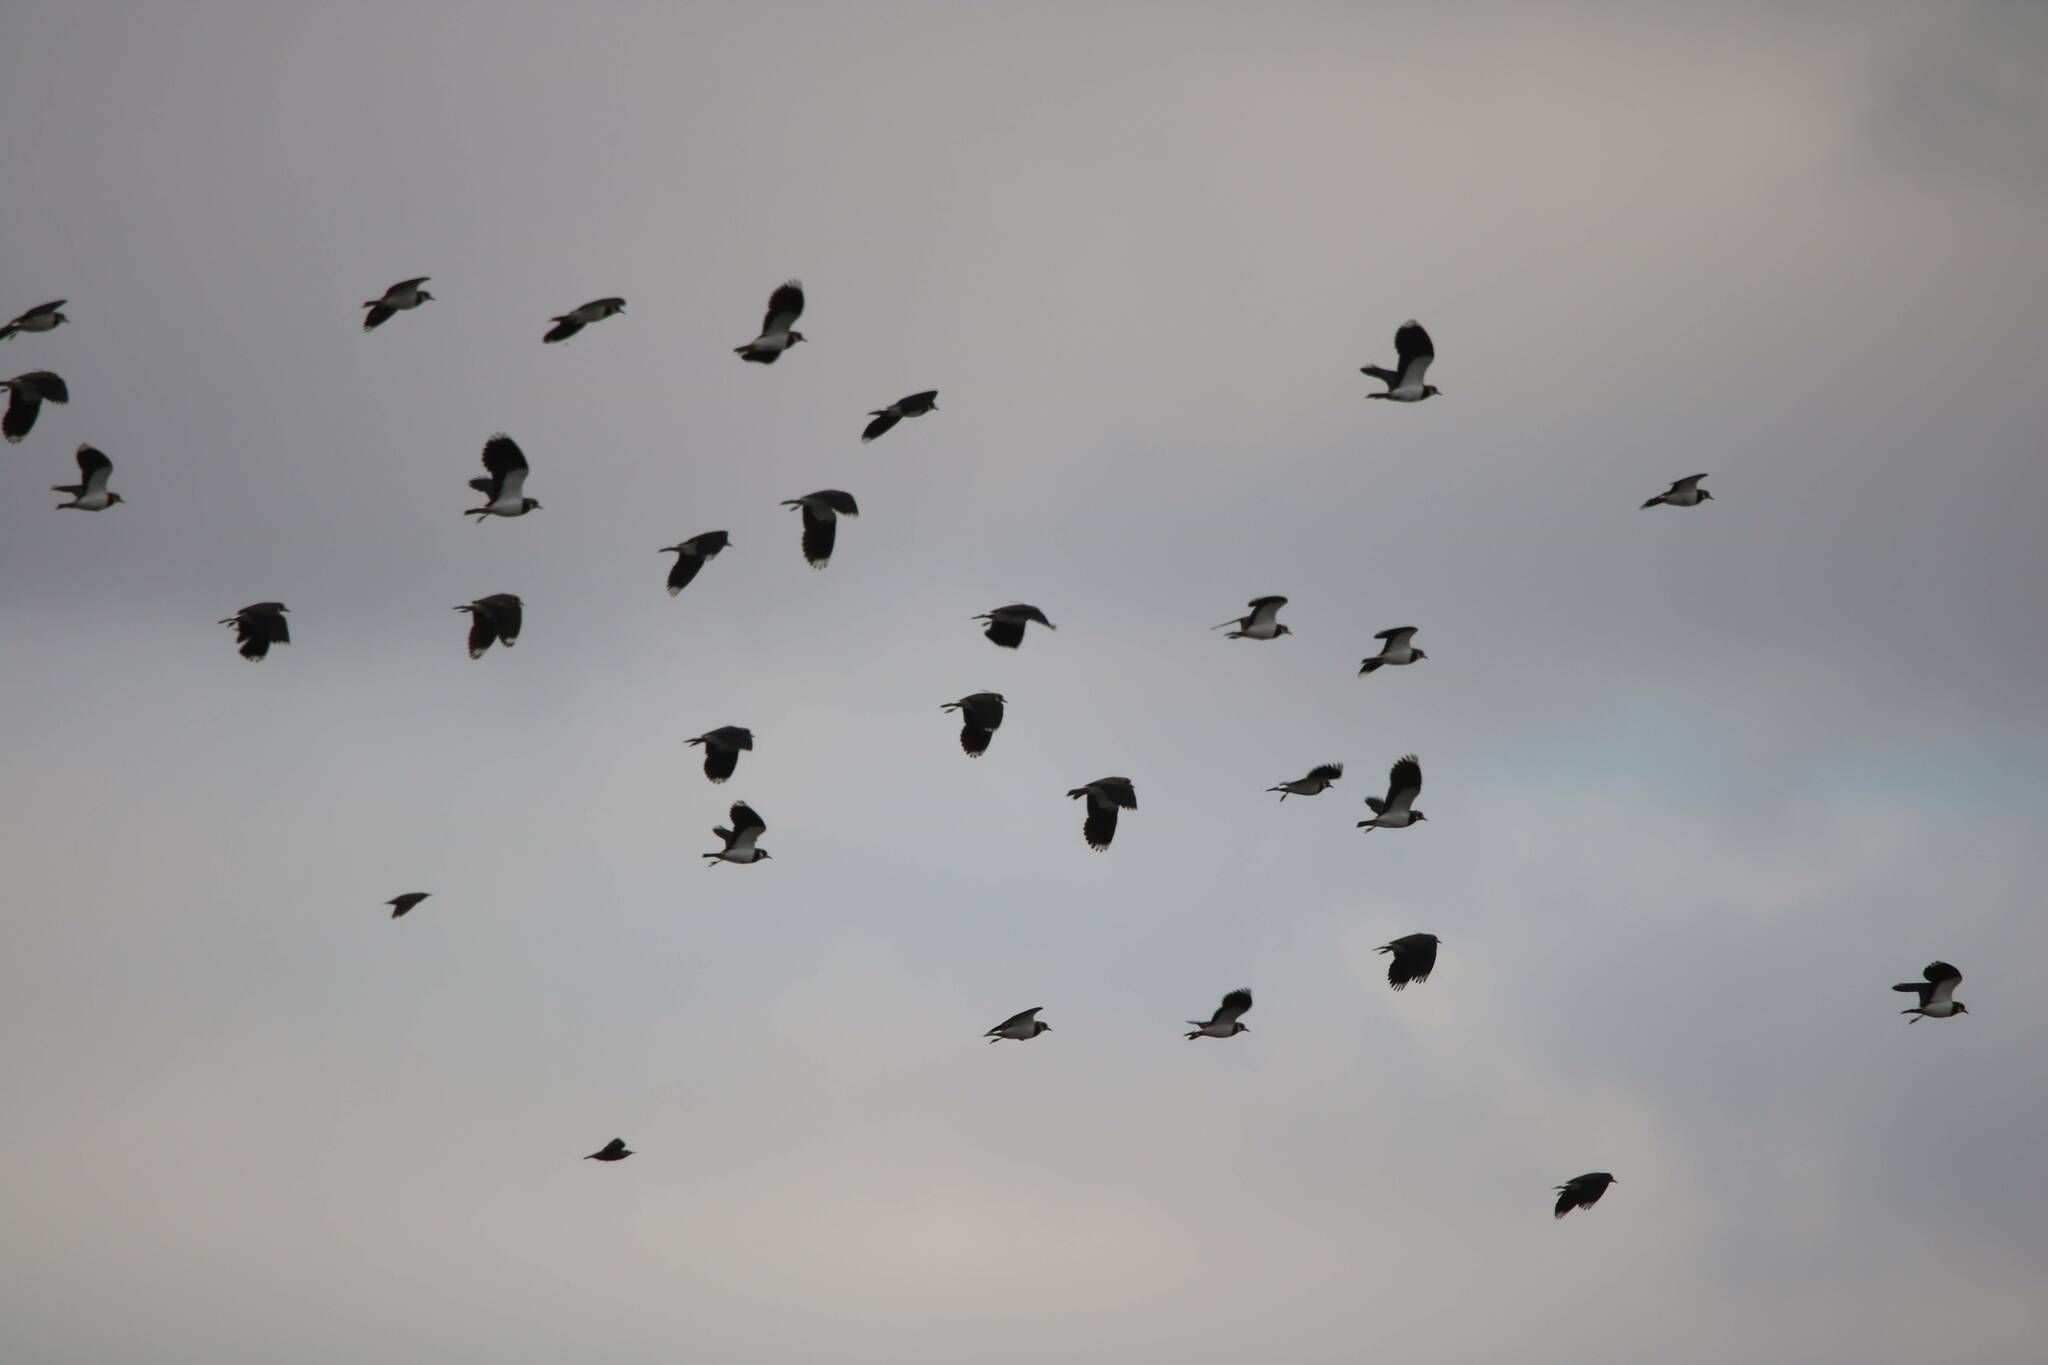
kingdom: Animalia
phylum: Chordata
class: Aves
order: Charadriiformes
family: Charadriidae
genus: Vanellus
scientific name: Vanellus vanellus
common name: Northern lapwing
